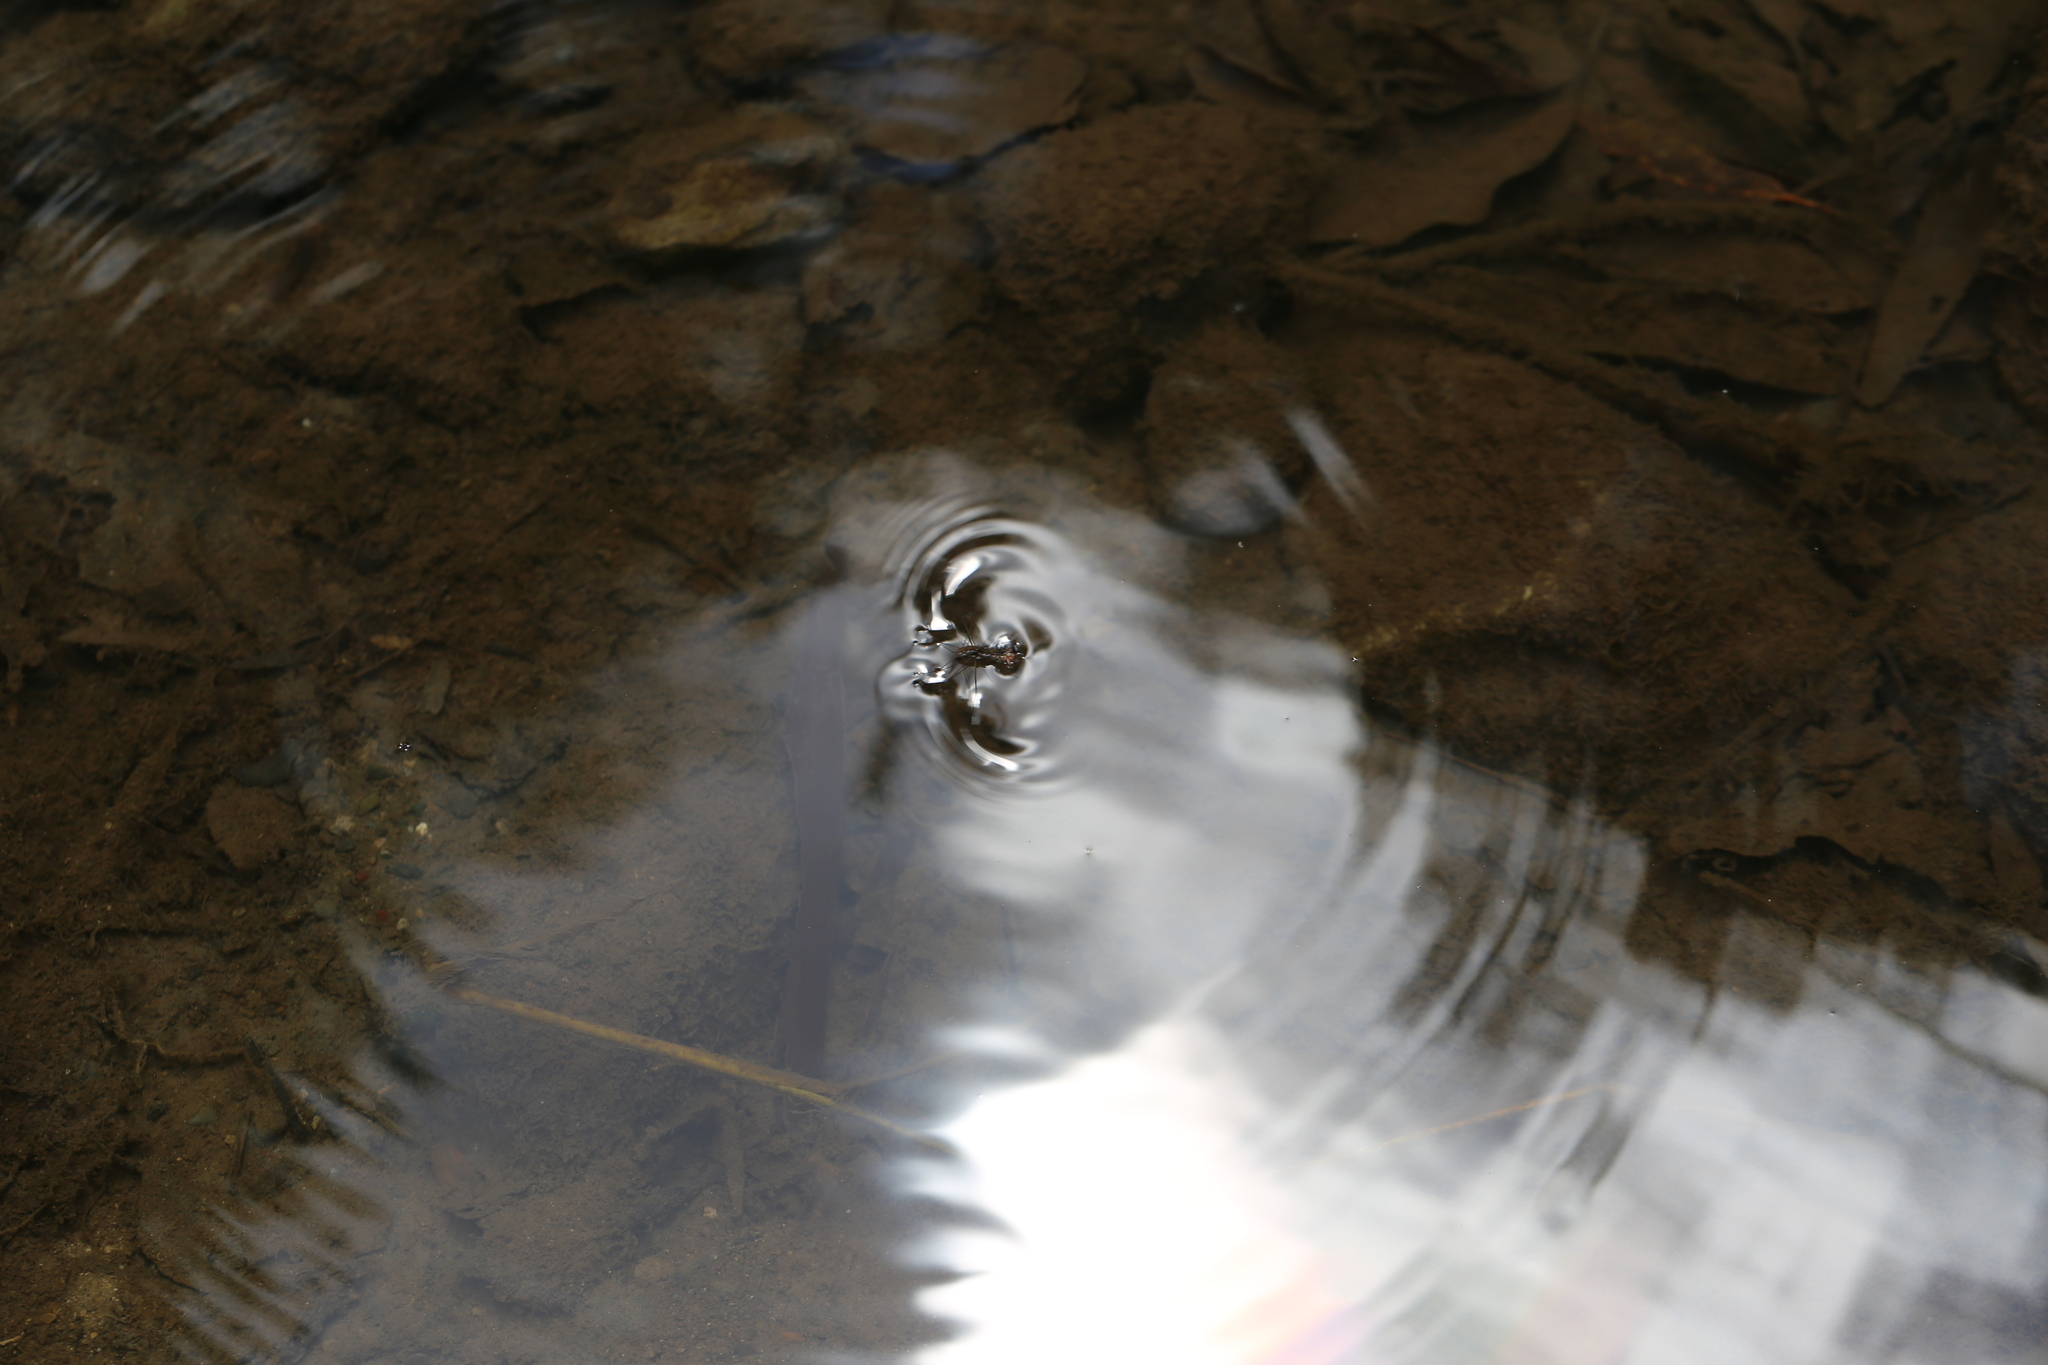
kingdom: Animalia
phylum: Arthropoda
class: Insecta
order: Hemiptera
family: Gerridae
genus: Tenagogerris
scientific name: Tenagogerris euphrosyne
